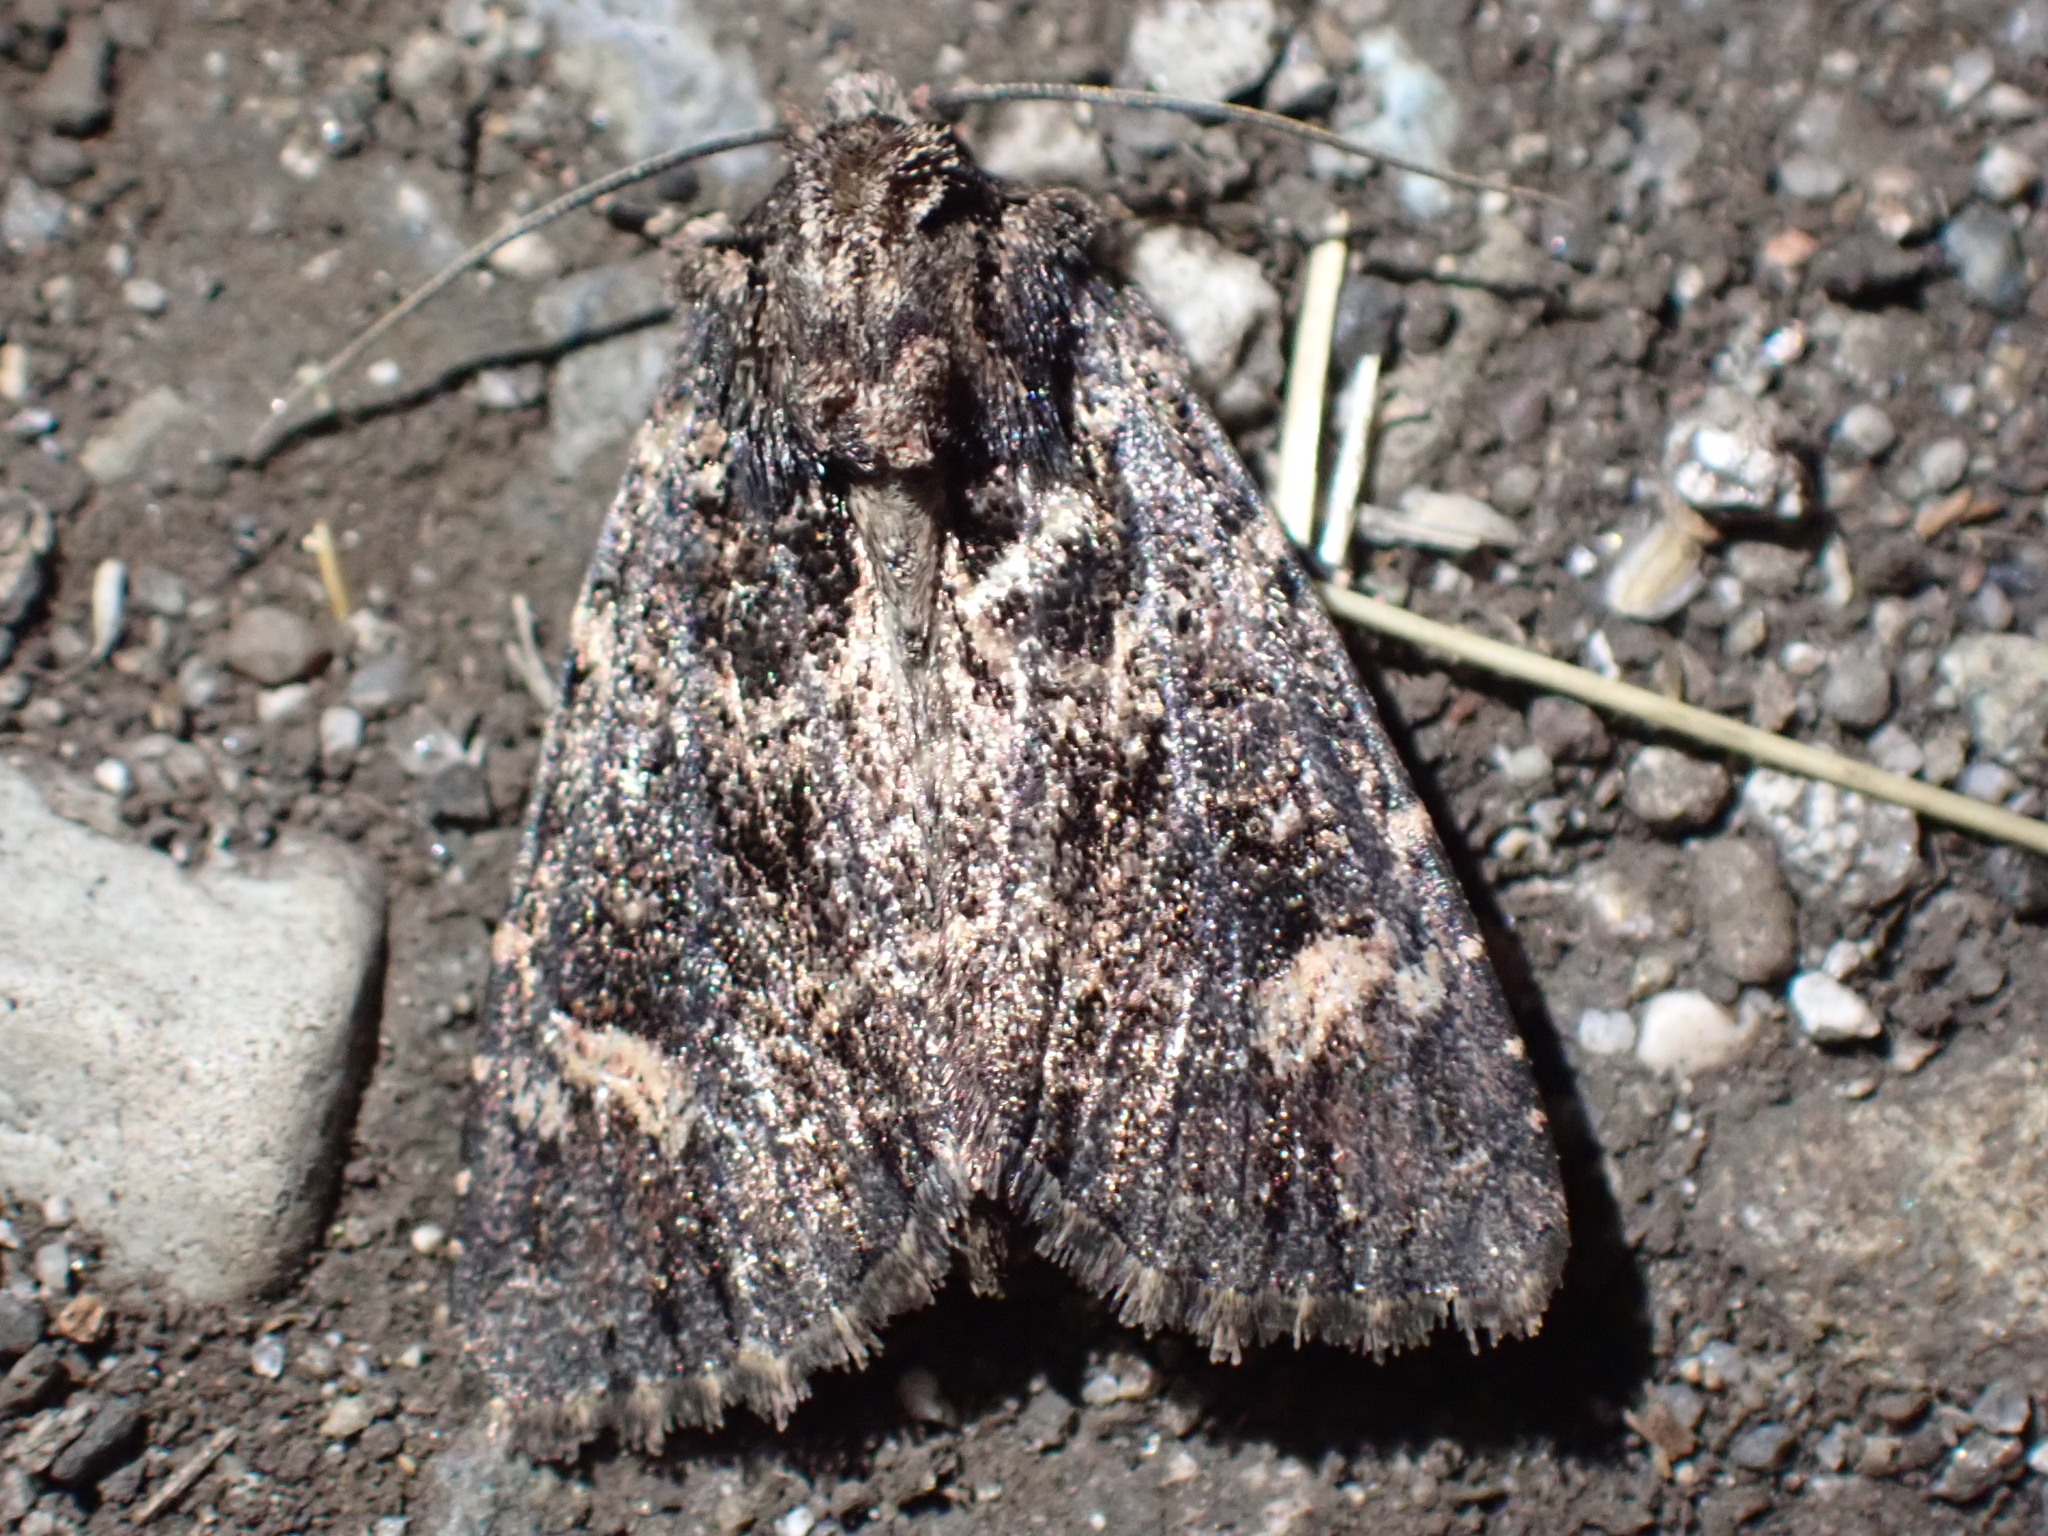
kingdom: Animalia
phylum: Arthropoda
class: Insecta
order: Lepidoptera
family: Noctuidae
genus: Aseptis
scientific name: Aseptis binotata
